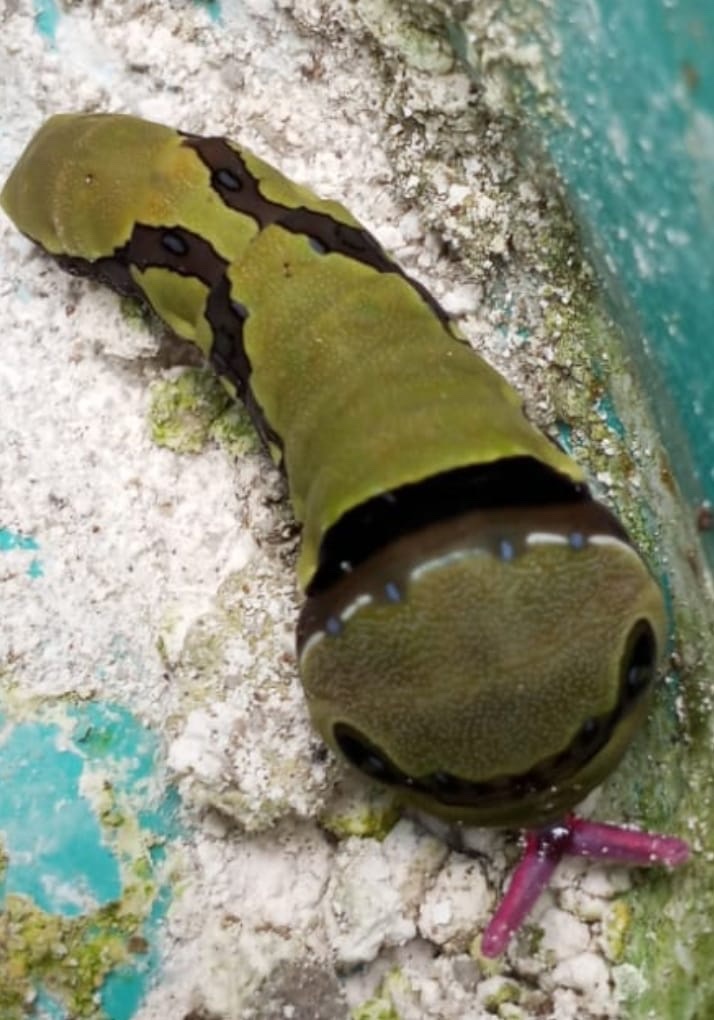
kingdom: Animalia
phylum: Arthropoda
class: Insecta
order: Lepidoptera
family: Papilionidae
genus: Papilio
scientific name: Papilio garamas
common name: Magnificent swallowtail
